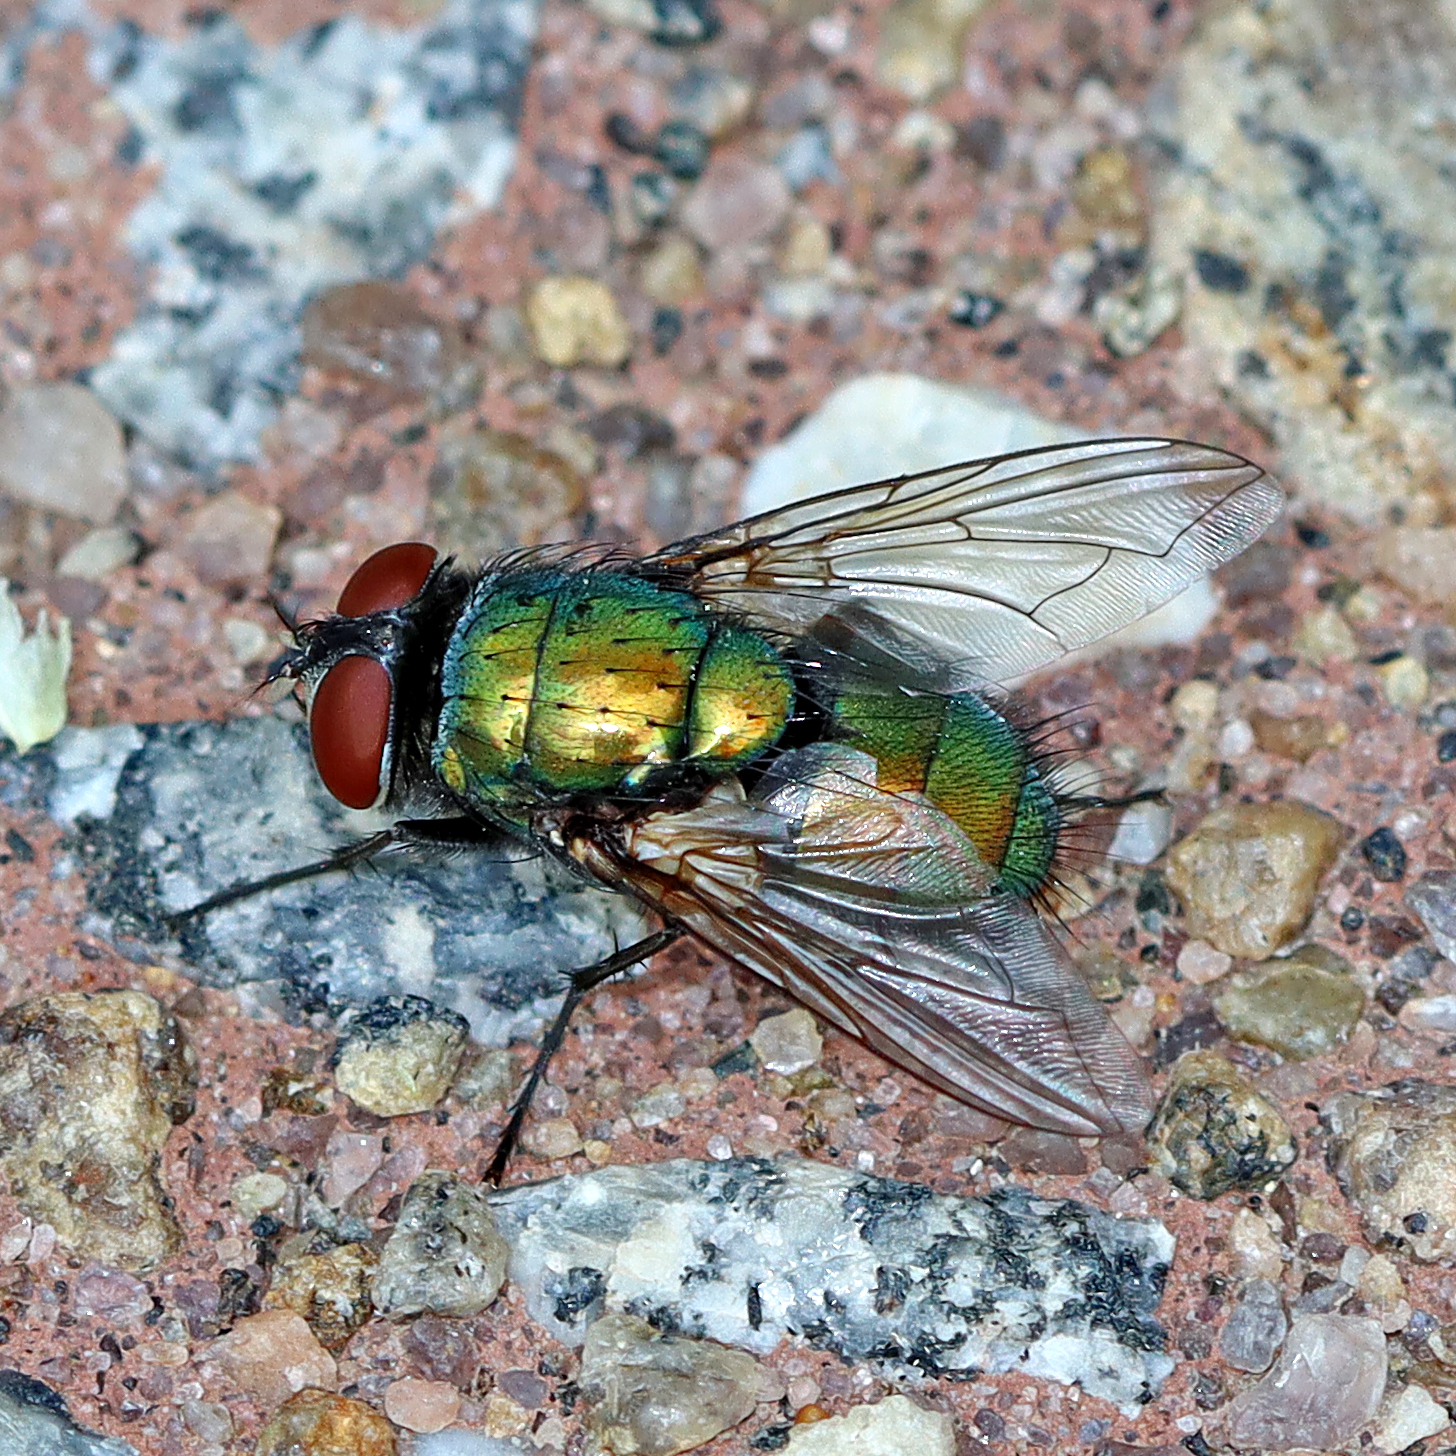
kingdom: Animalia
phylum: Arthropoda
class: Insecta
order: Diptera
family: Calliphoridae
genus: Lucilia
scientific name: Lucilia sericata
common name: Blow fly
